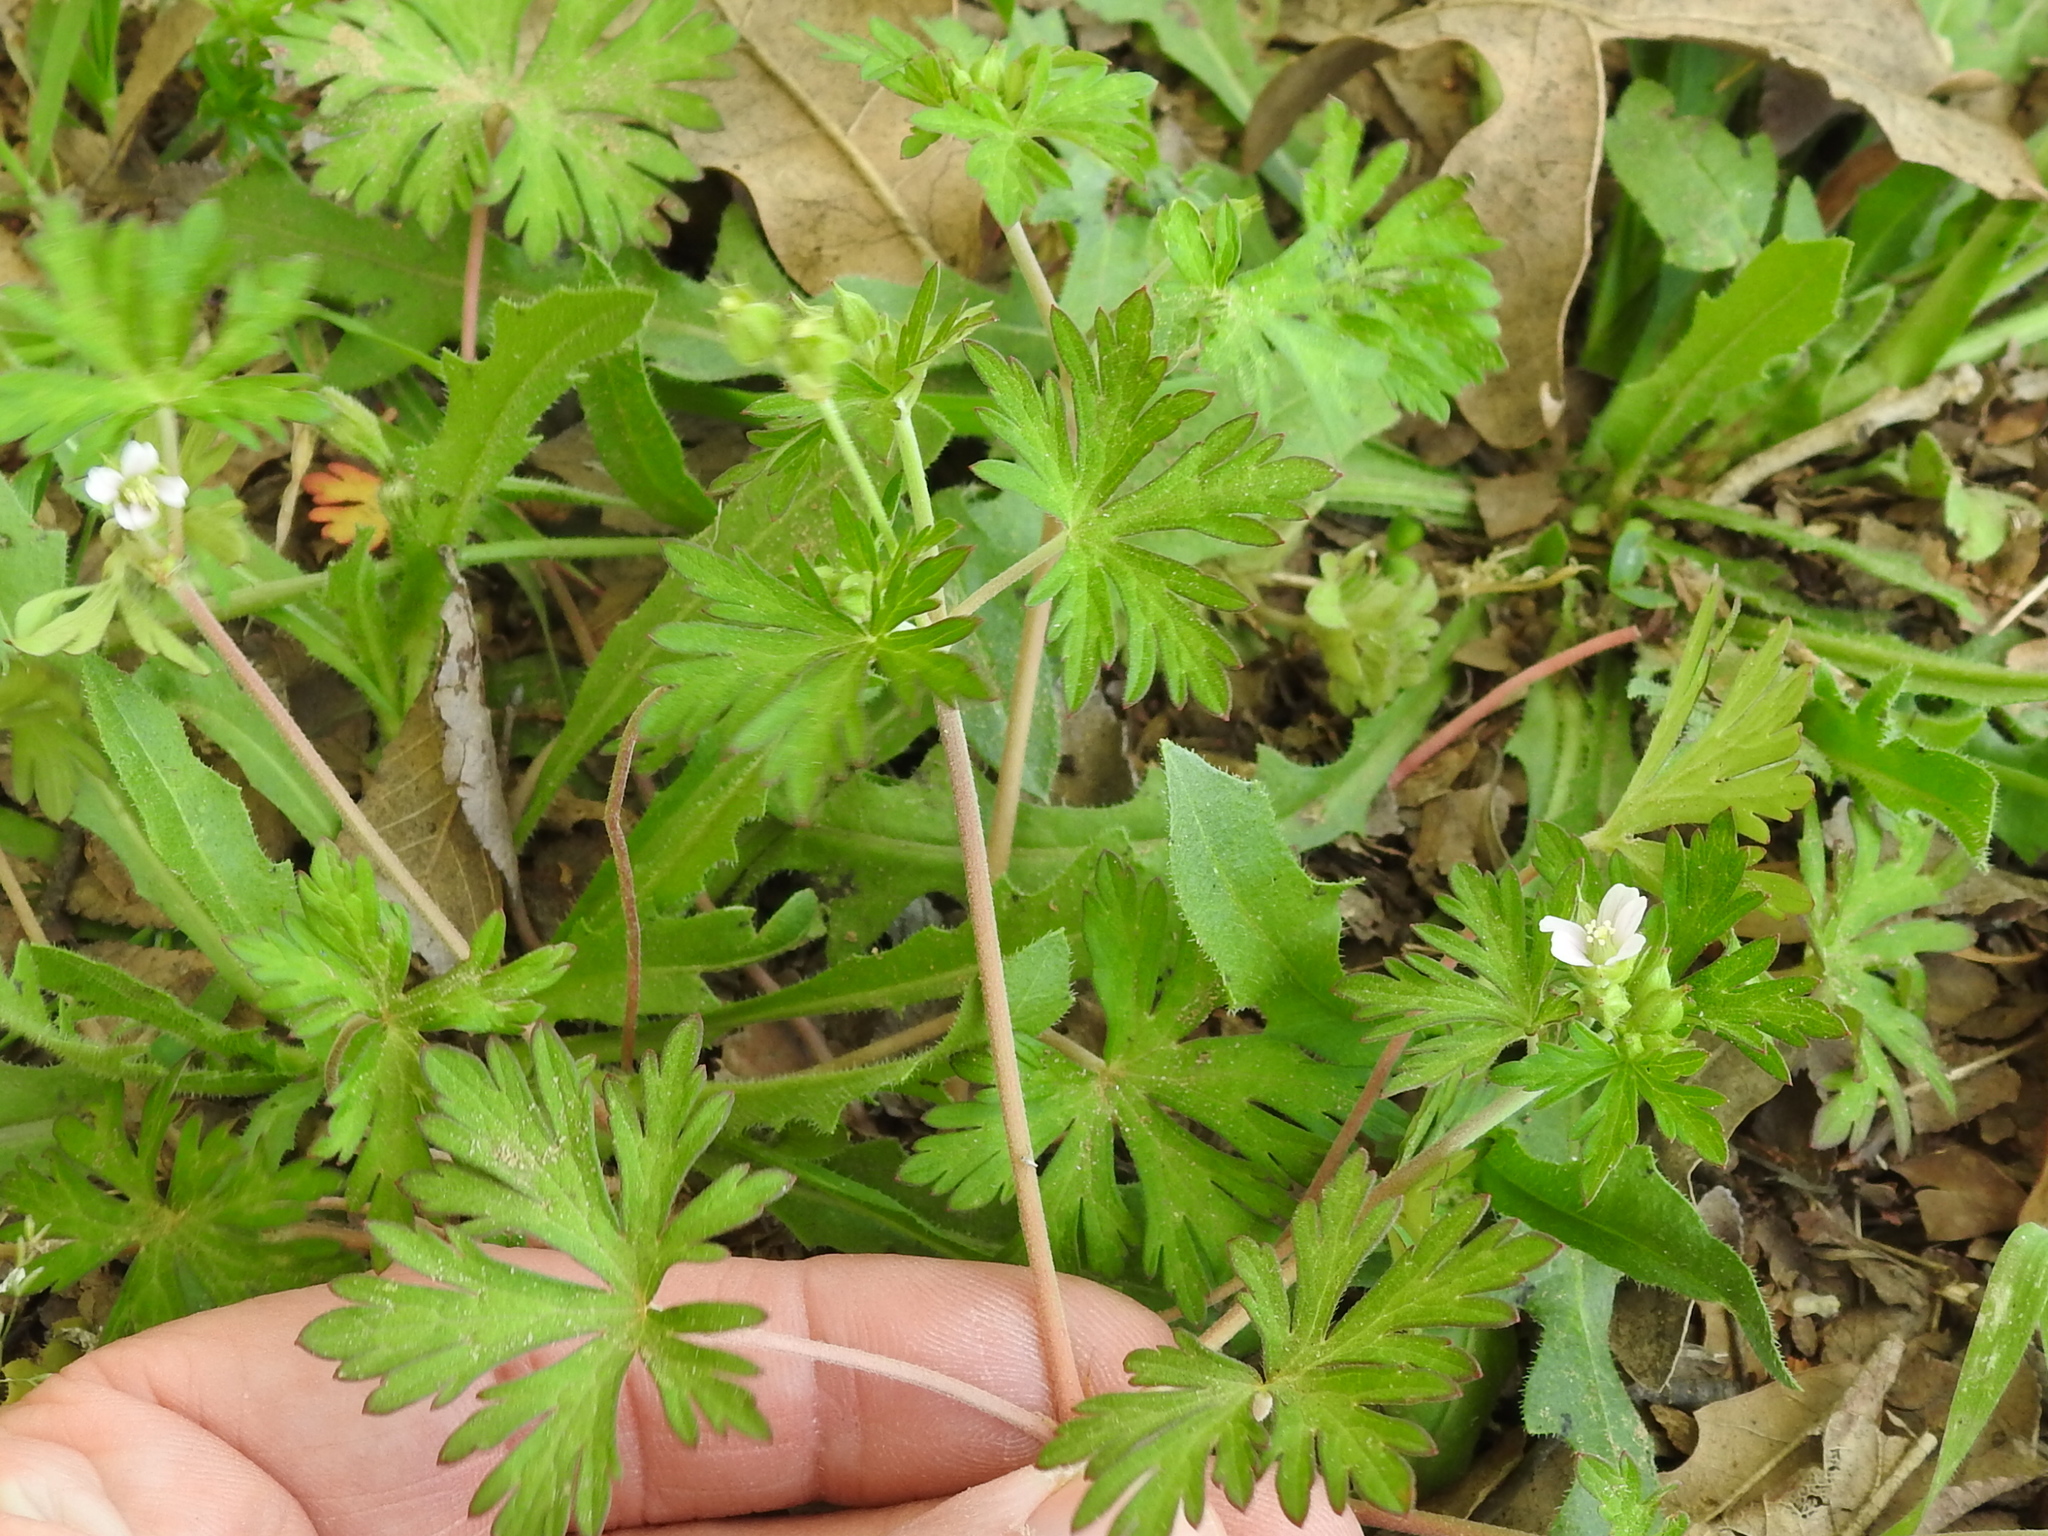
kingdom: Plantae
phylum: Tracheophyta
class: Magnoliopsida
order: Geraniales
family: Geraniaceae
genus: Geranium
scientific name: Geranium carolinianum
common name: Carolina crane's-bill
